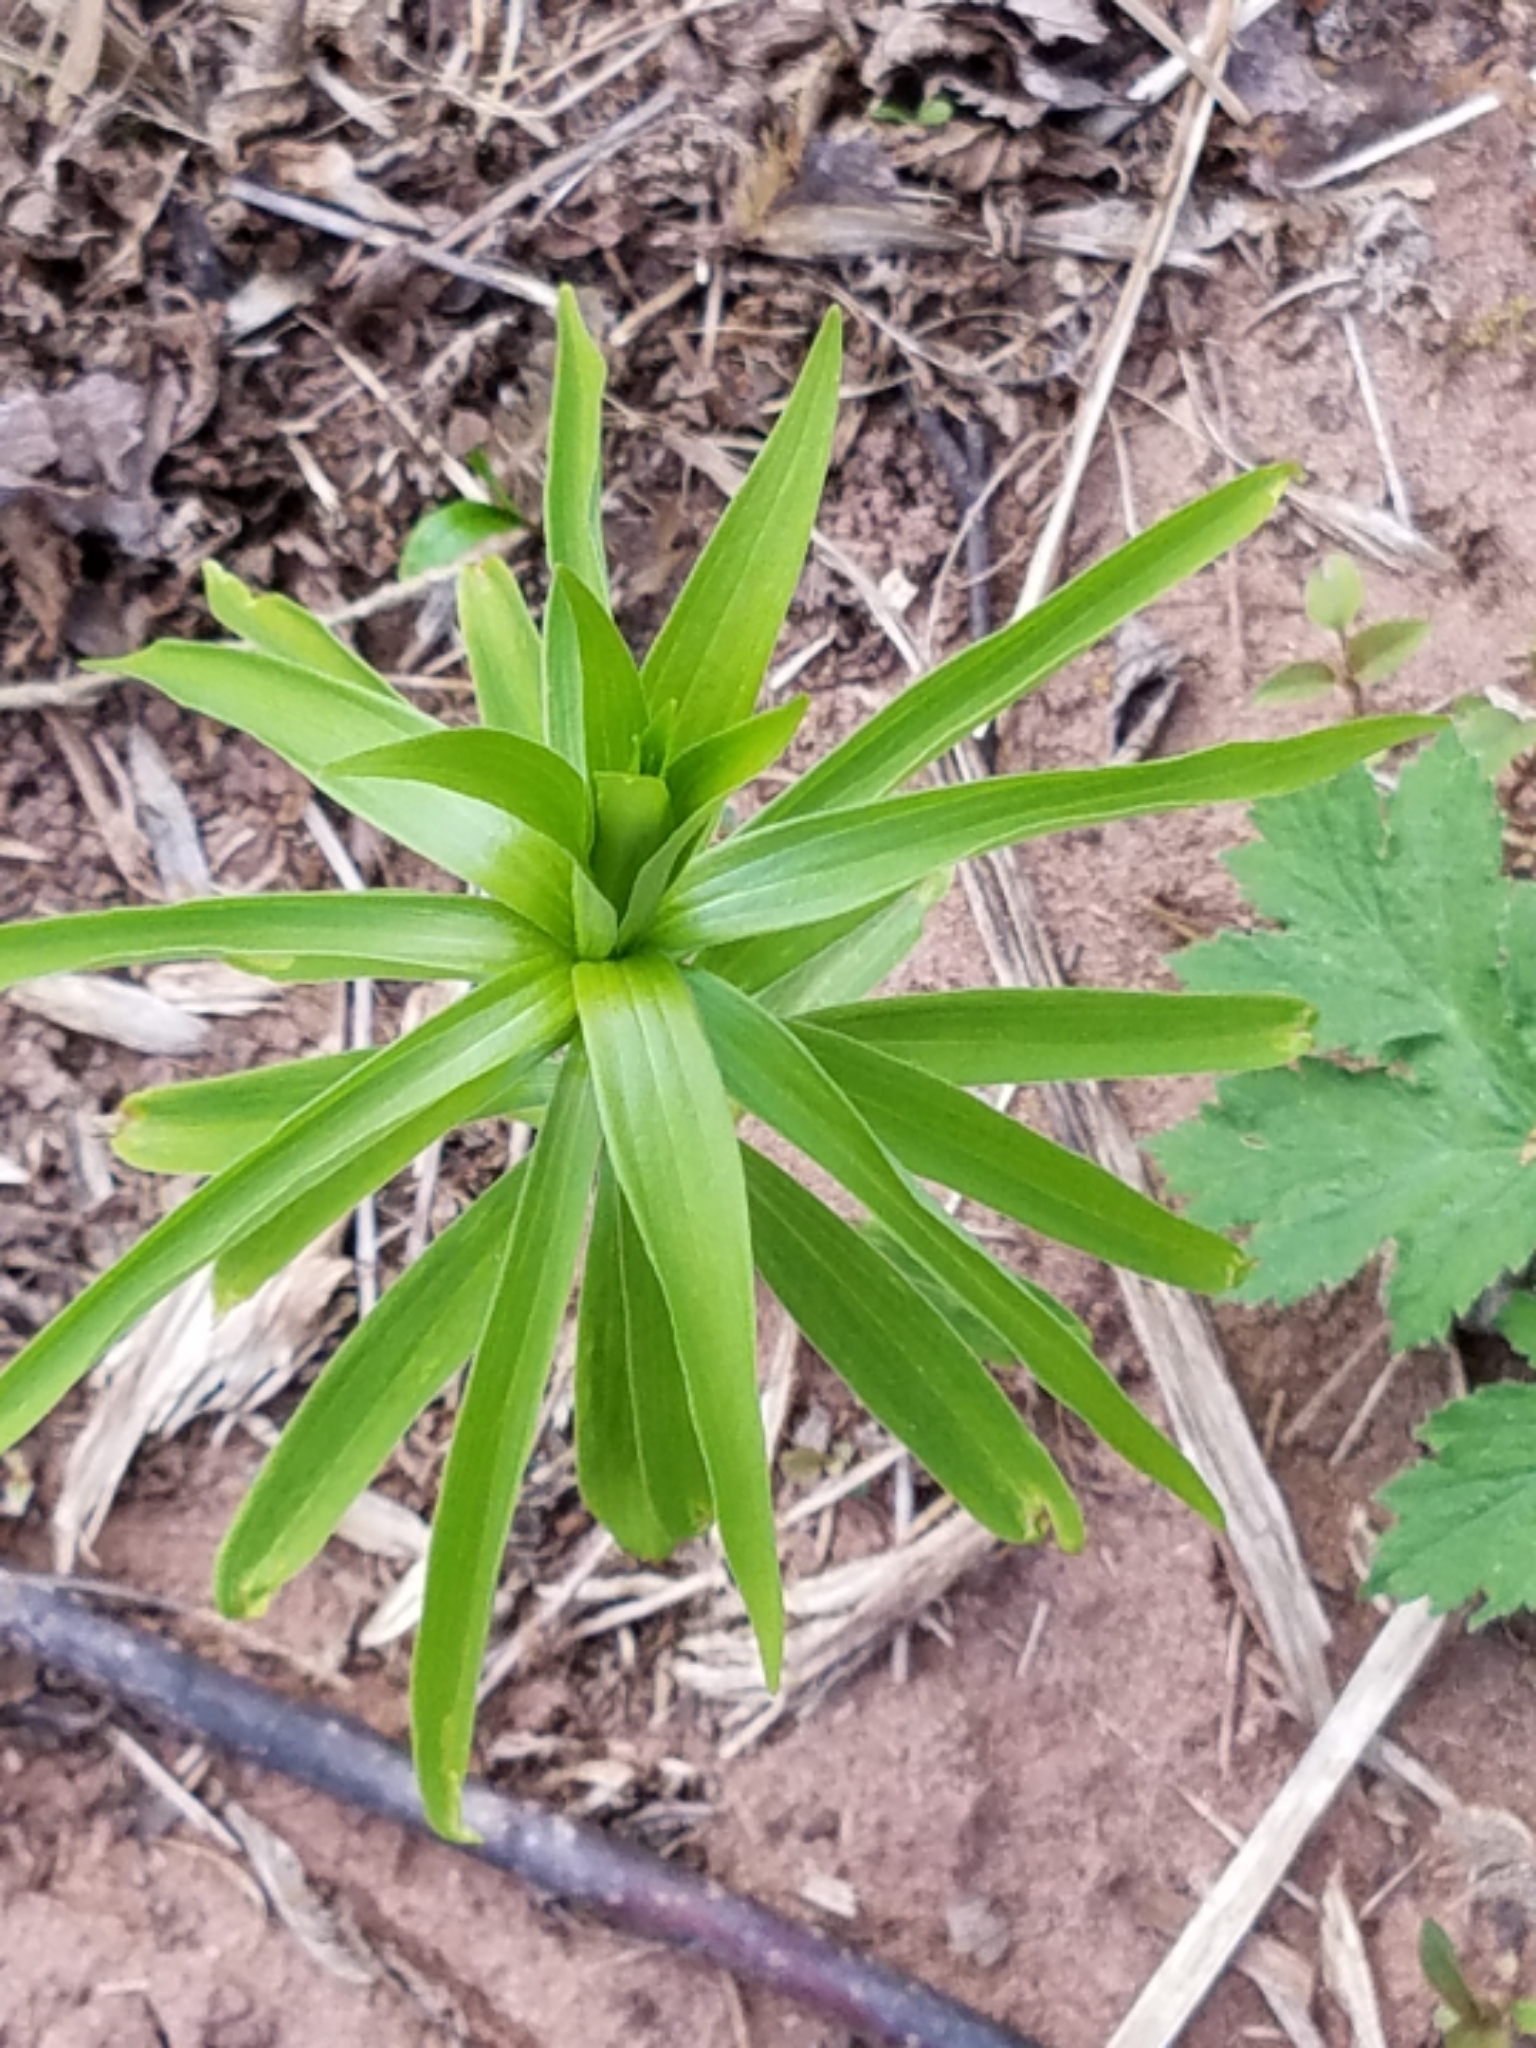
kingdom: Plantae
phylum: Tracheophyta
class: Liliopsida
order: Liliales
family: Liliaceae
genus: Lilium
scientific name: Lilium michiganense
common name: Michigan lily
